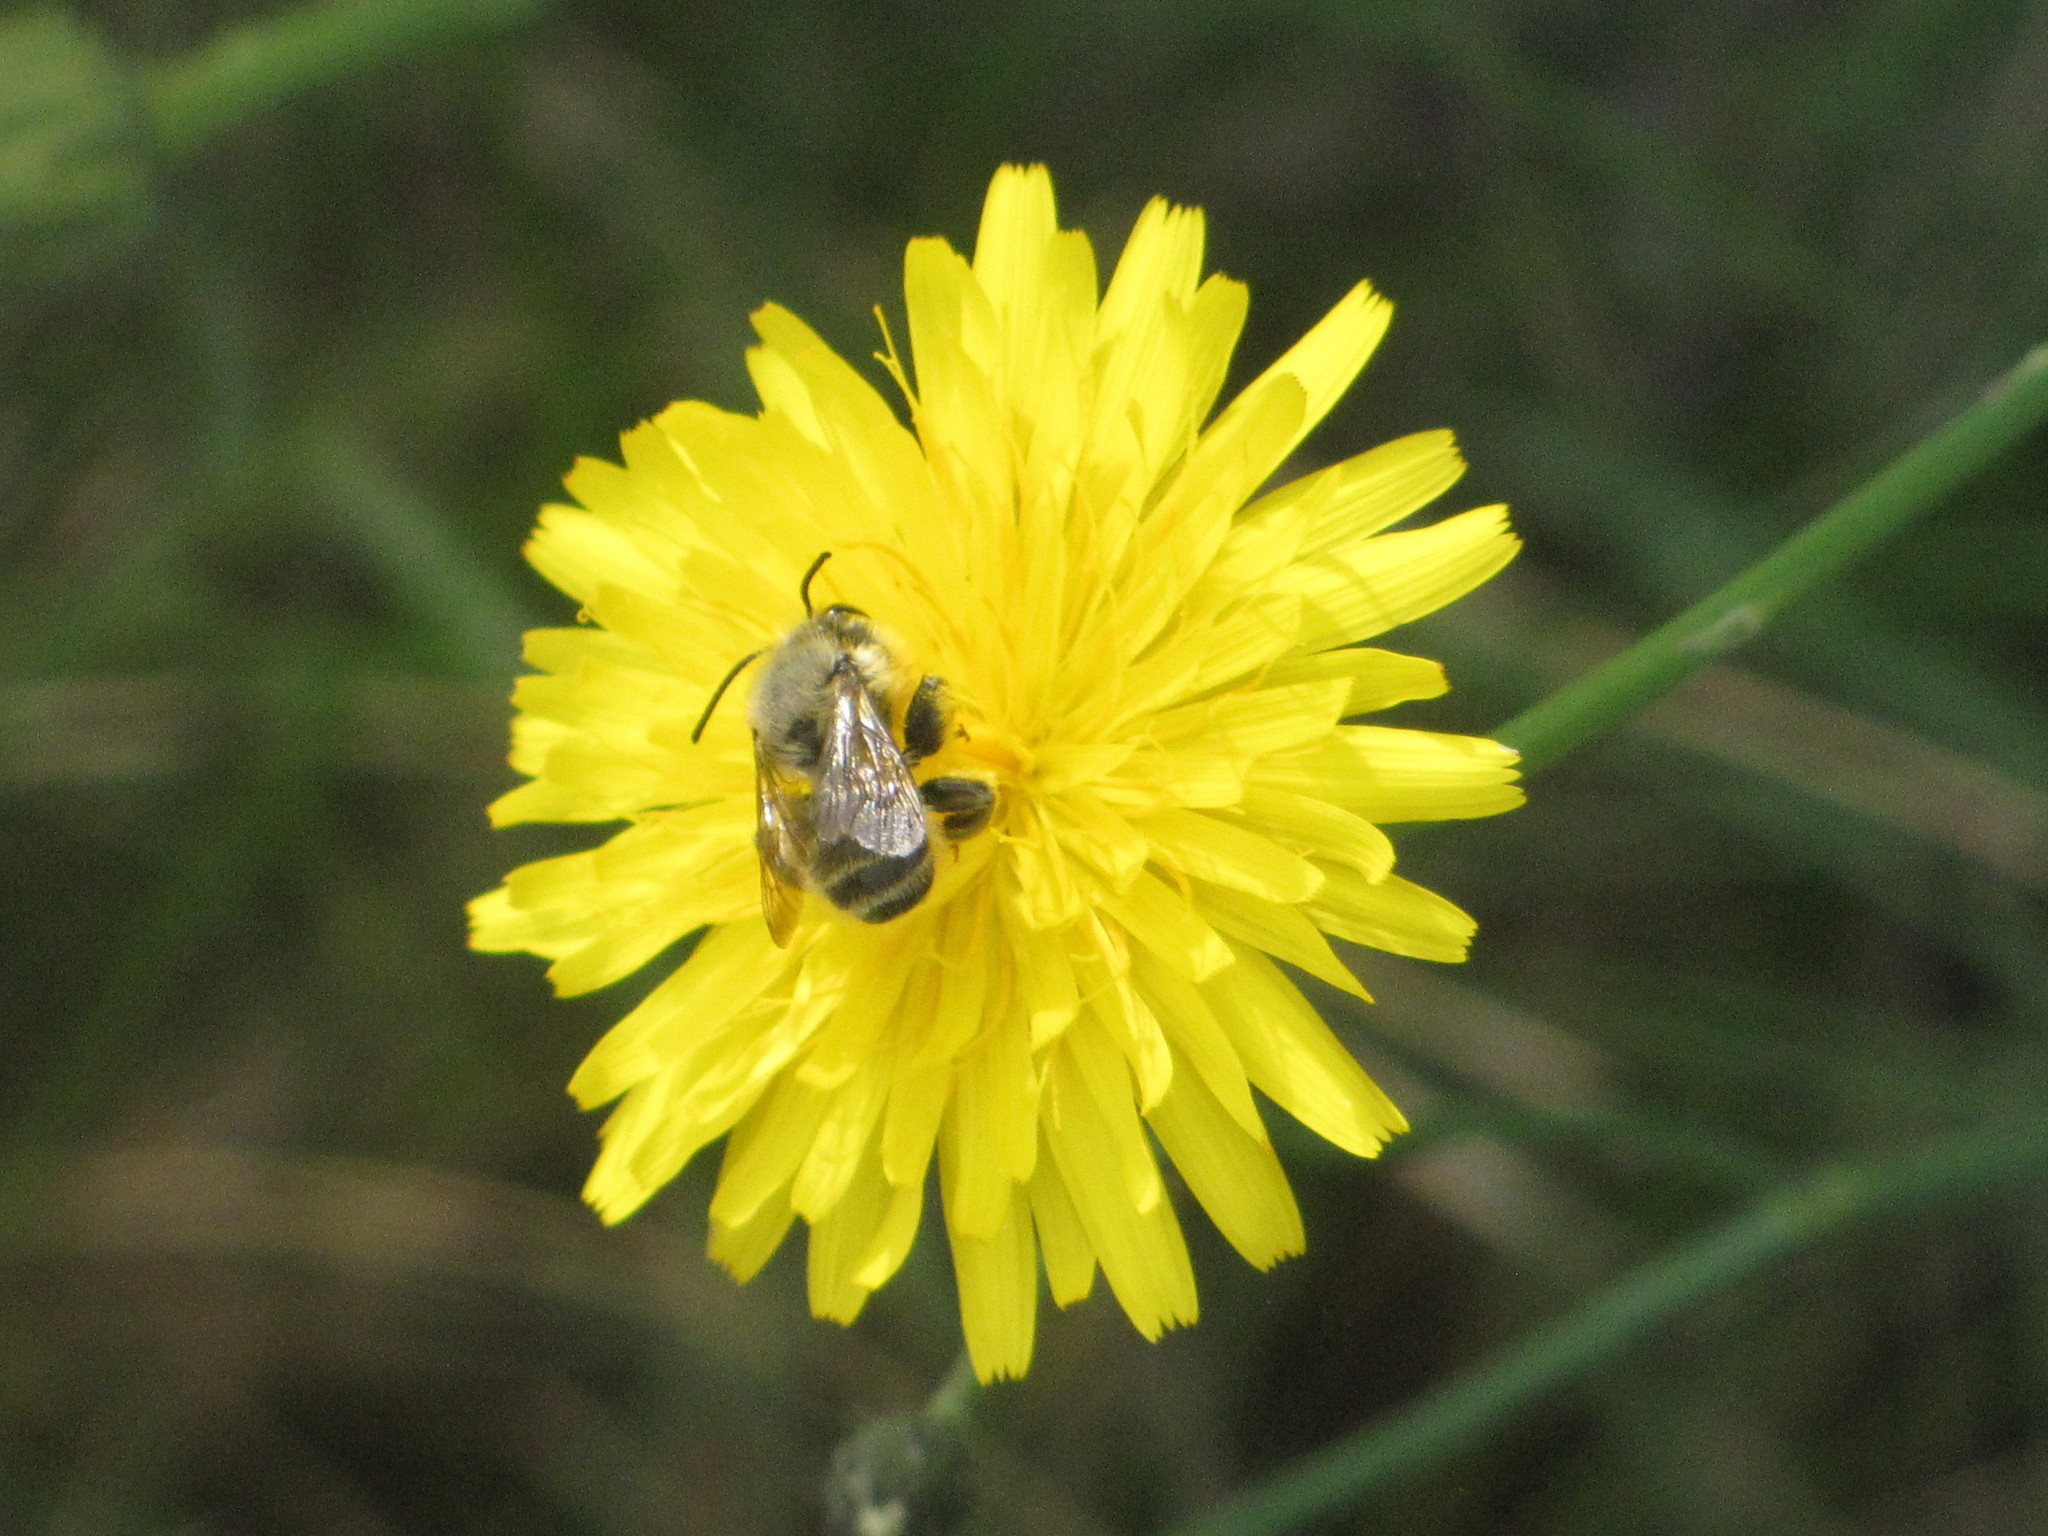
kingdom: Animalia
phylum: Arthropoda
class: Insecta
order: Hymenoptera
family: Megachilidae
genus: Megachile
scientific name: Megachile perihirta
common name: Western leafcutter
